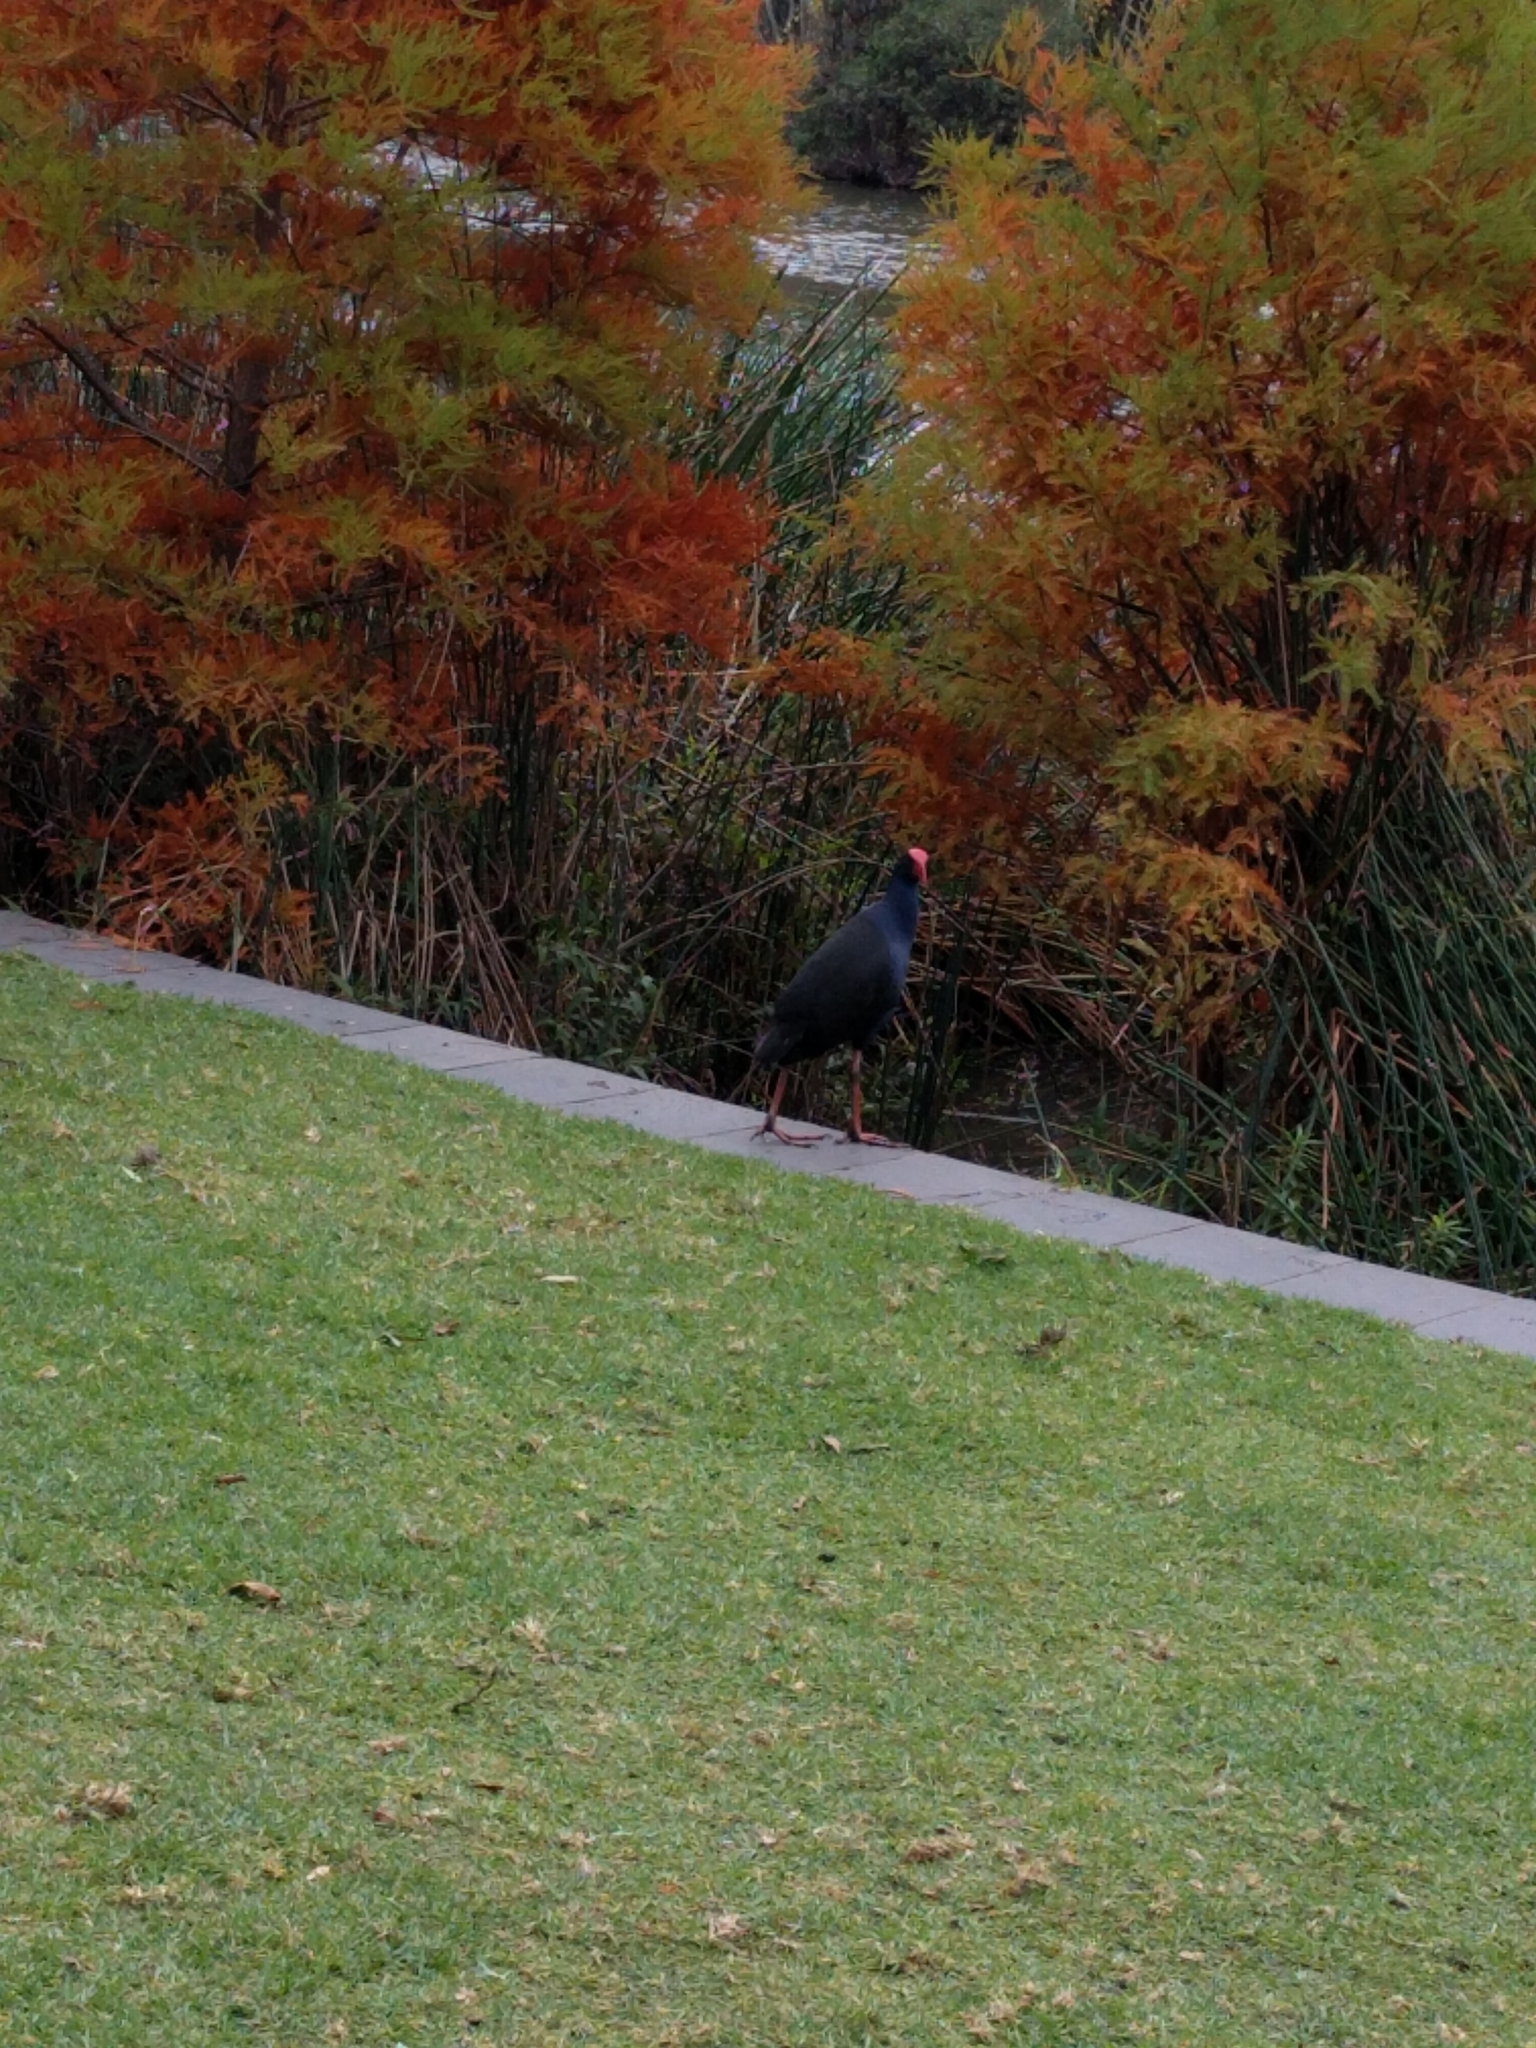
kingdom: Animalia
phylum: Chordata
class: Aves
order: Gruiformes
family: Rallidae
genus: Porphyrio
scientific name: Porphyrio melanotus
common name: Australasian swamphen
